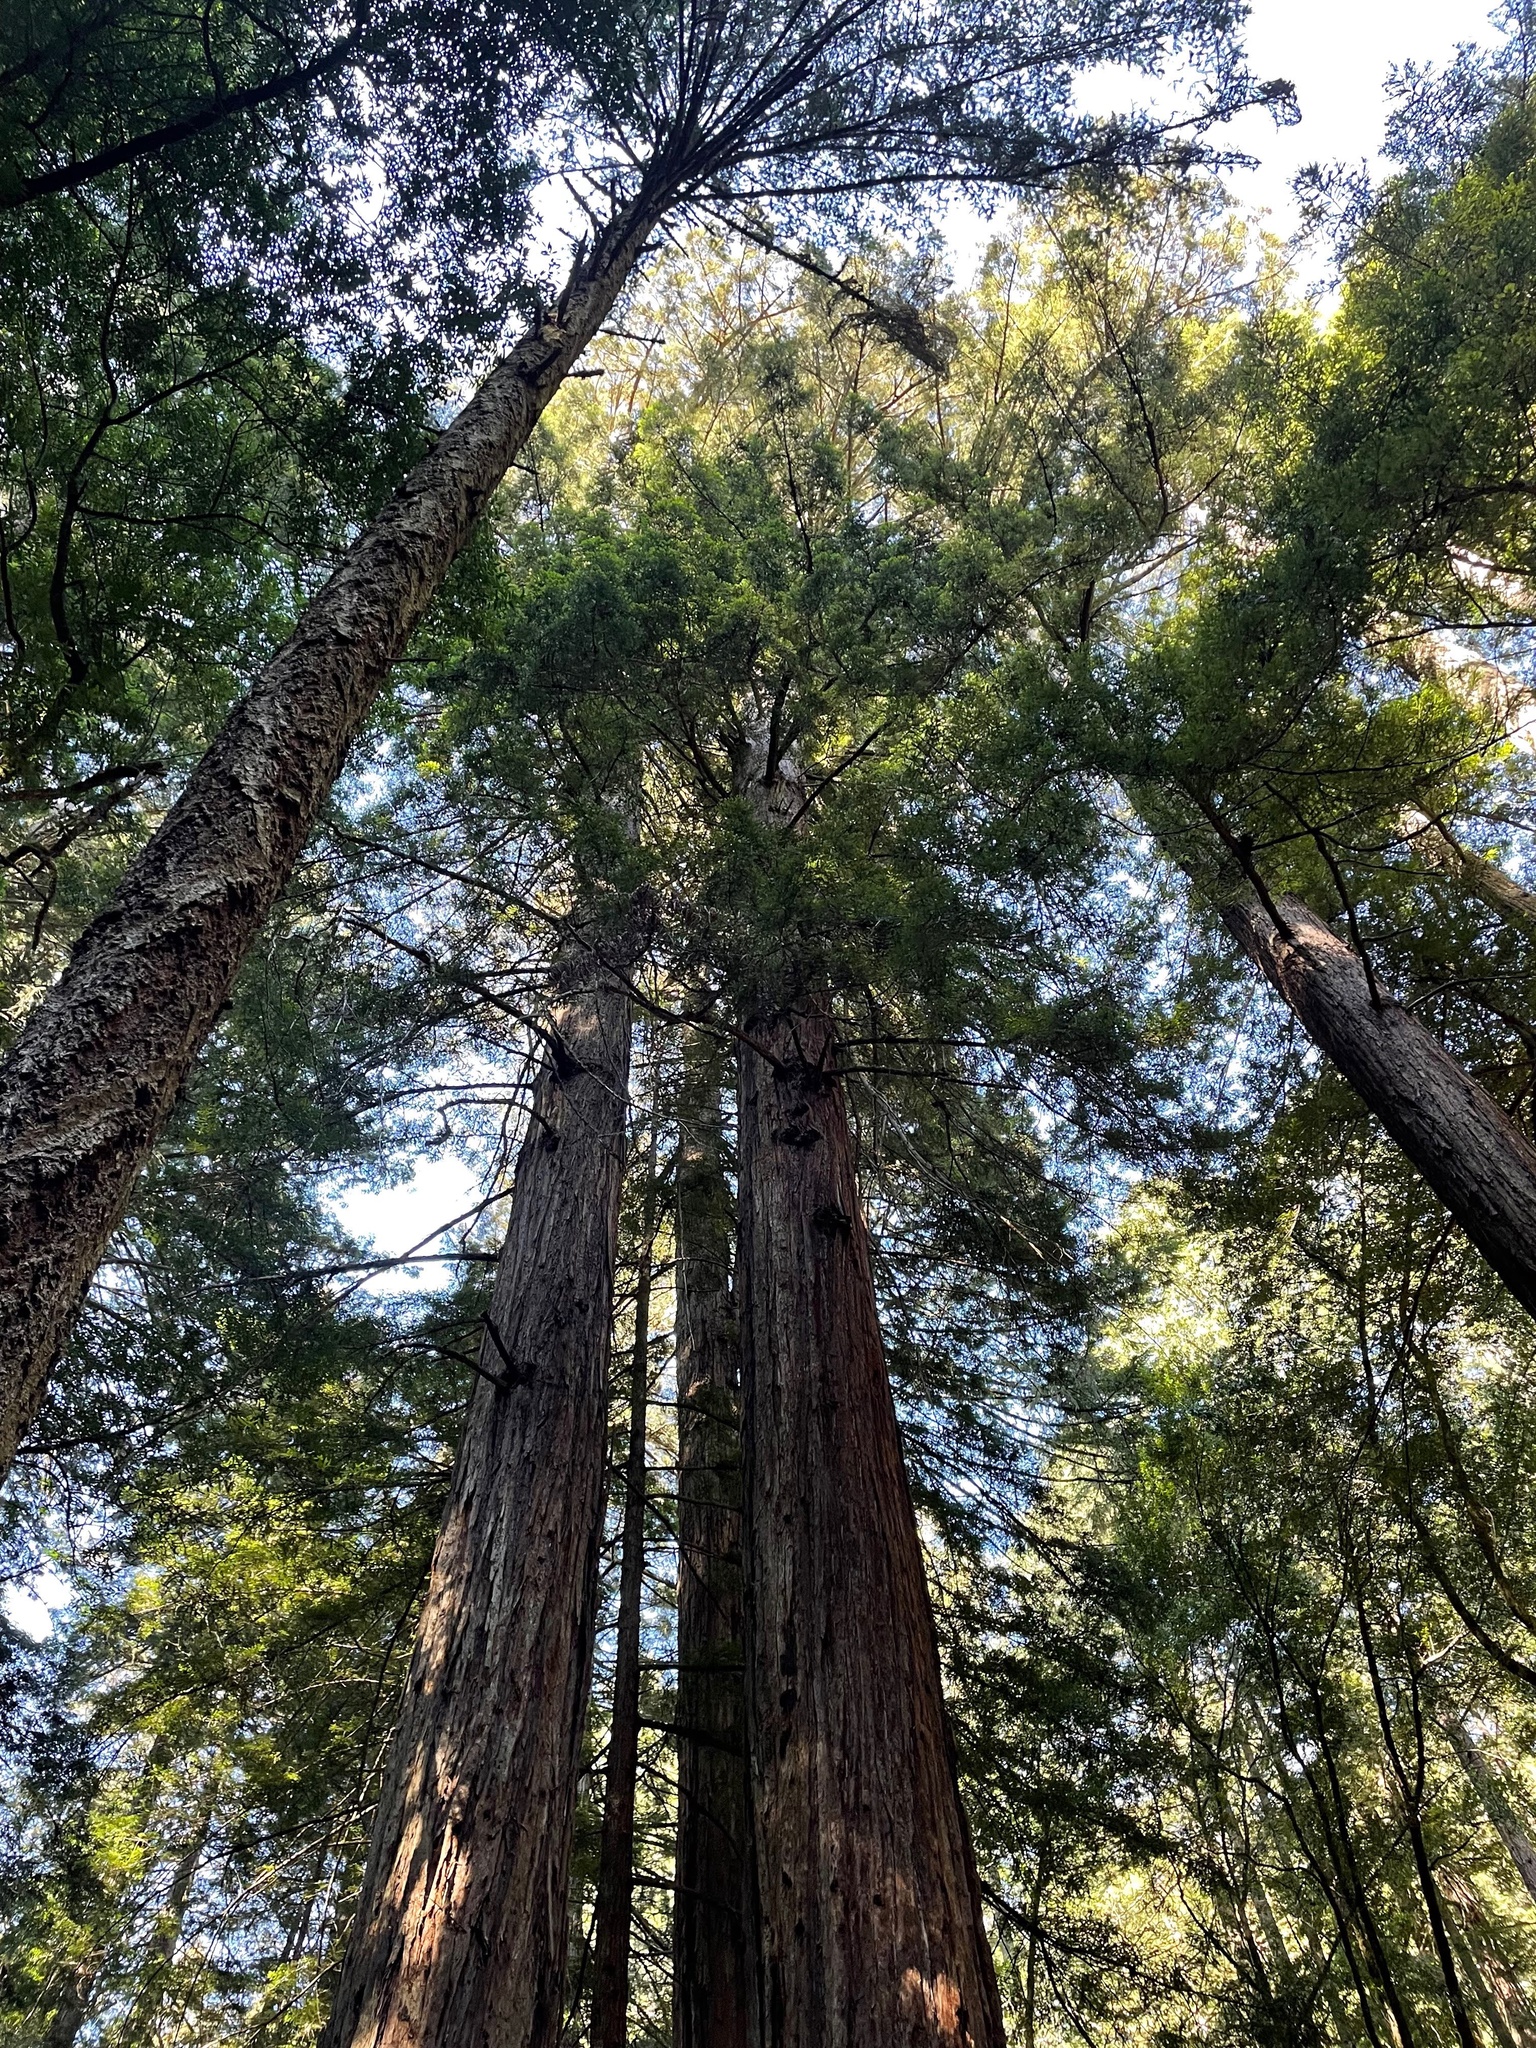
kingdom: Plantae
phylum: Tracheophyta
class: Pinopsida
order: Pinales
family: Cupressaceae
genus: Sequoia
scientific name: Sequoia sempervirens
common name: Coast redwood
